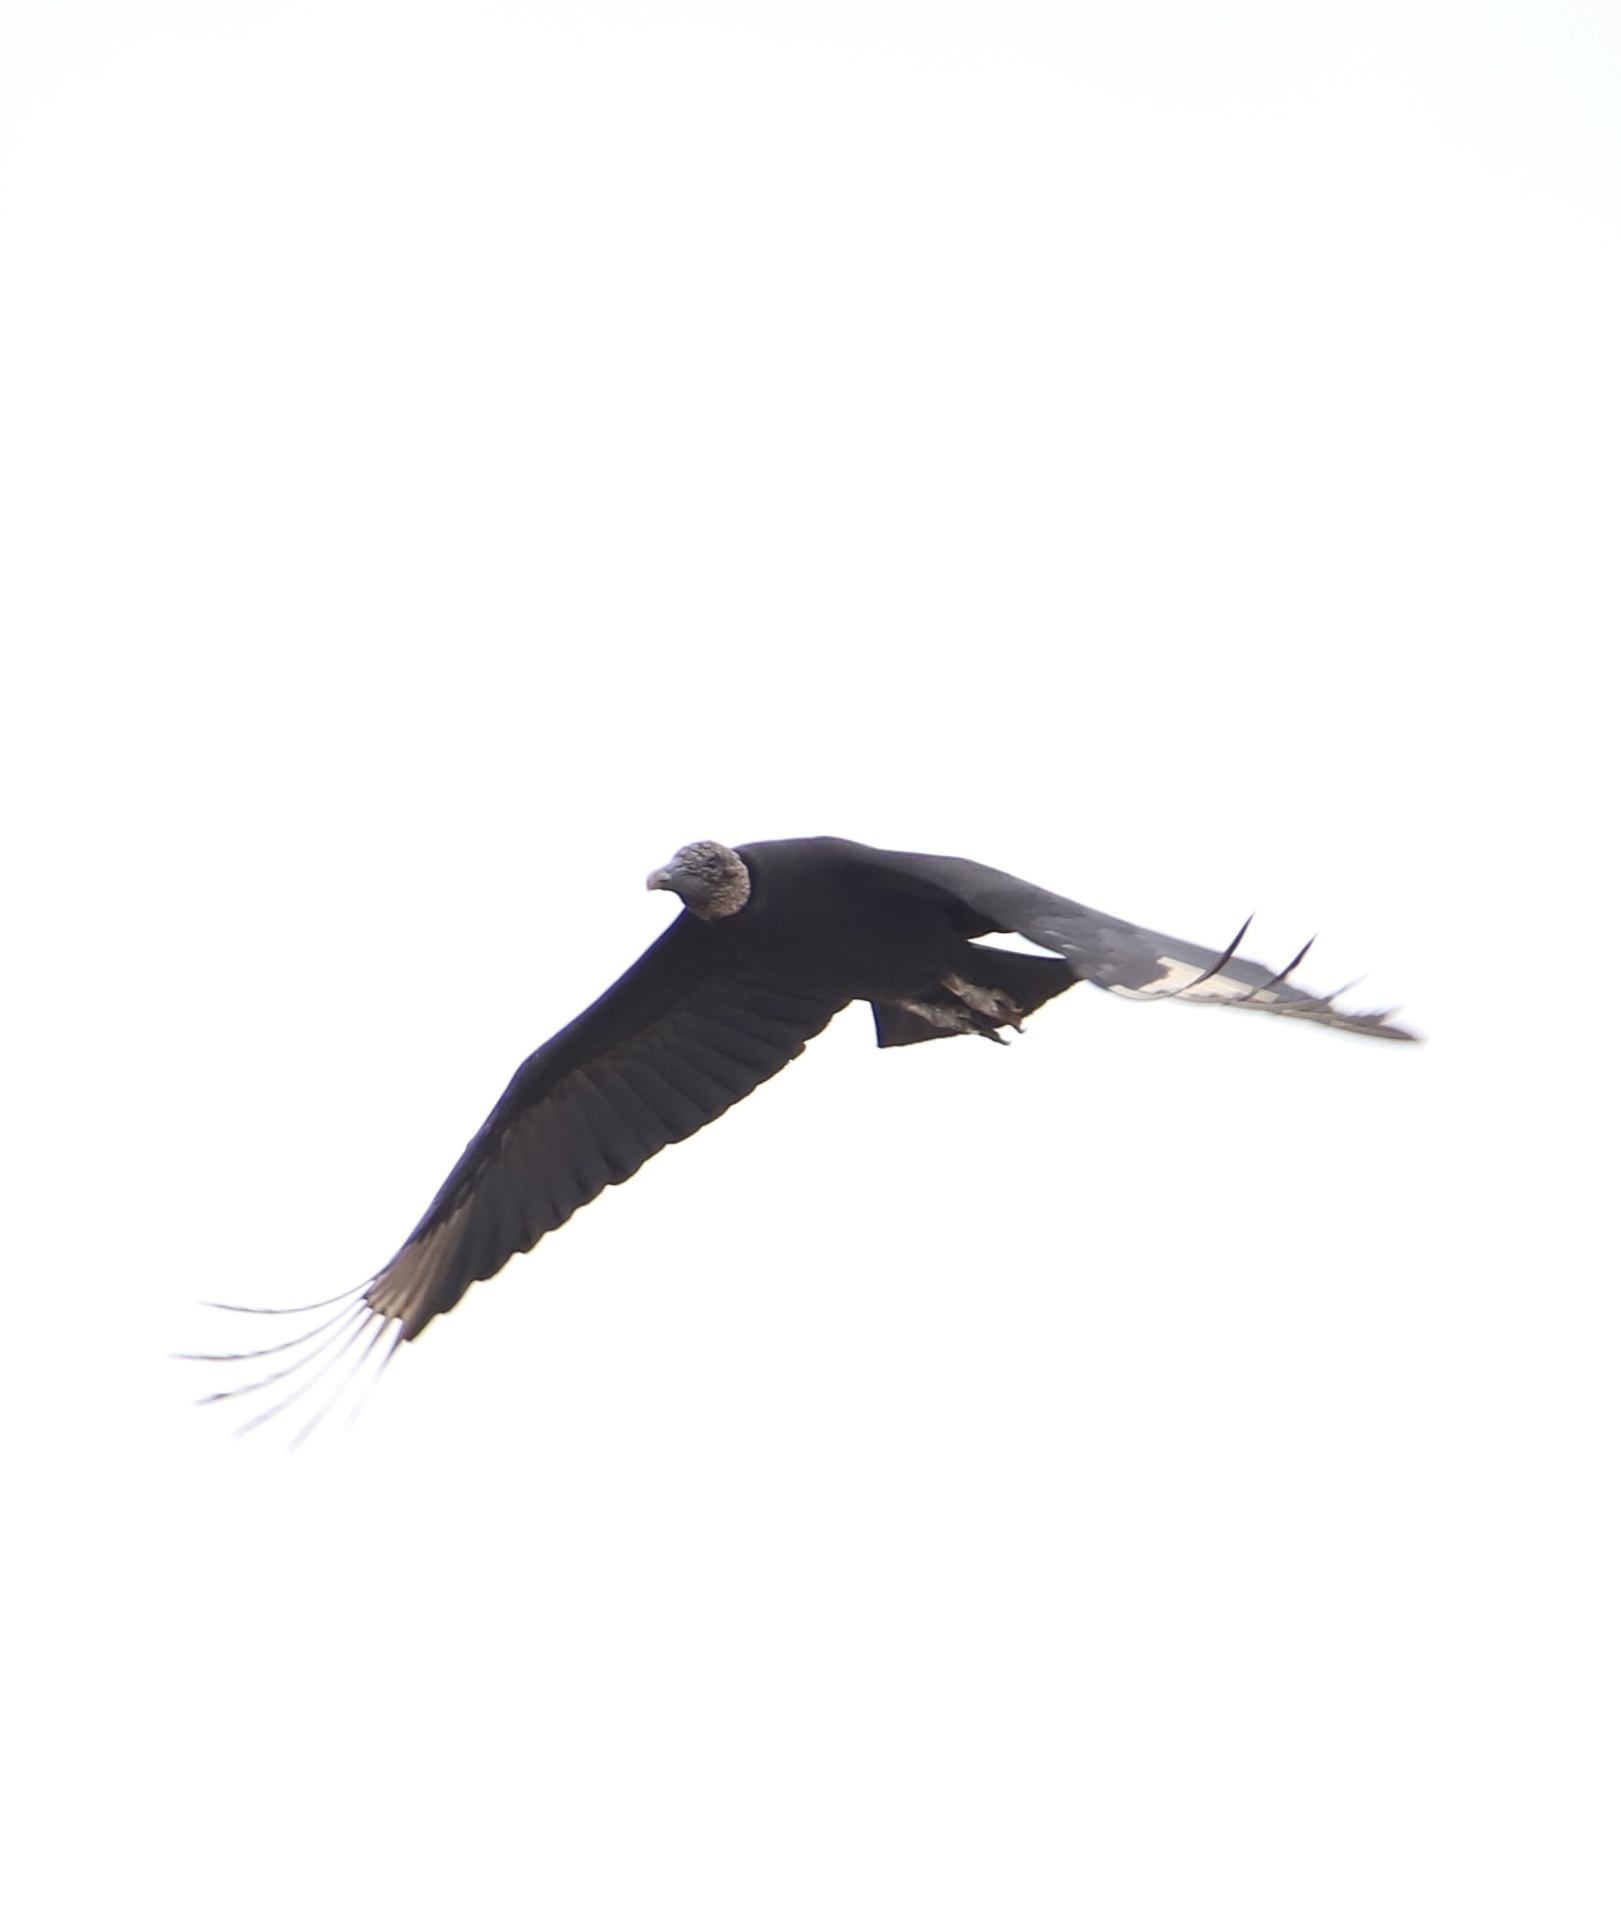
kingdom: Animalia
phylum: Chordata
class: Aves
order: Accipitriformes
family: Cathartidae
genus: Coragyps
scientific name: Coragyps atratus
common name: Black vulture
